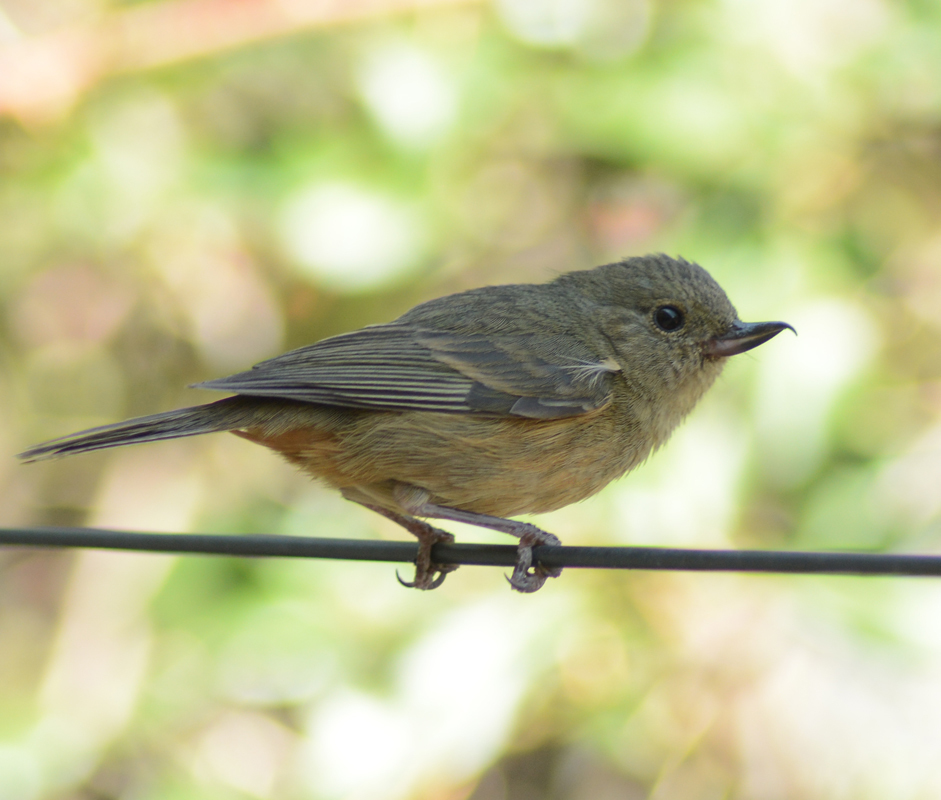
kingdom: Animalia
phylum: Chordata
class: Aves
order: Passeriformes
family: Thraupidae
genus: Diglossa
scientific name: Diglossa baritula
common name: Cinnamon-bellied flowerpiercer
